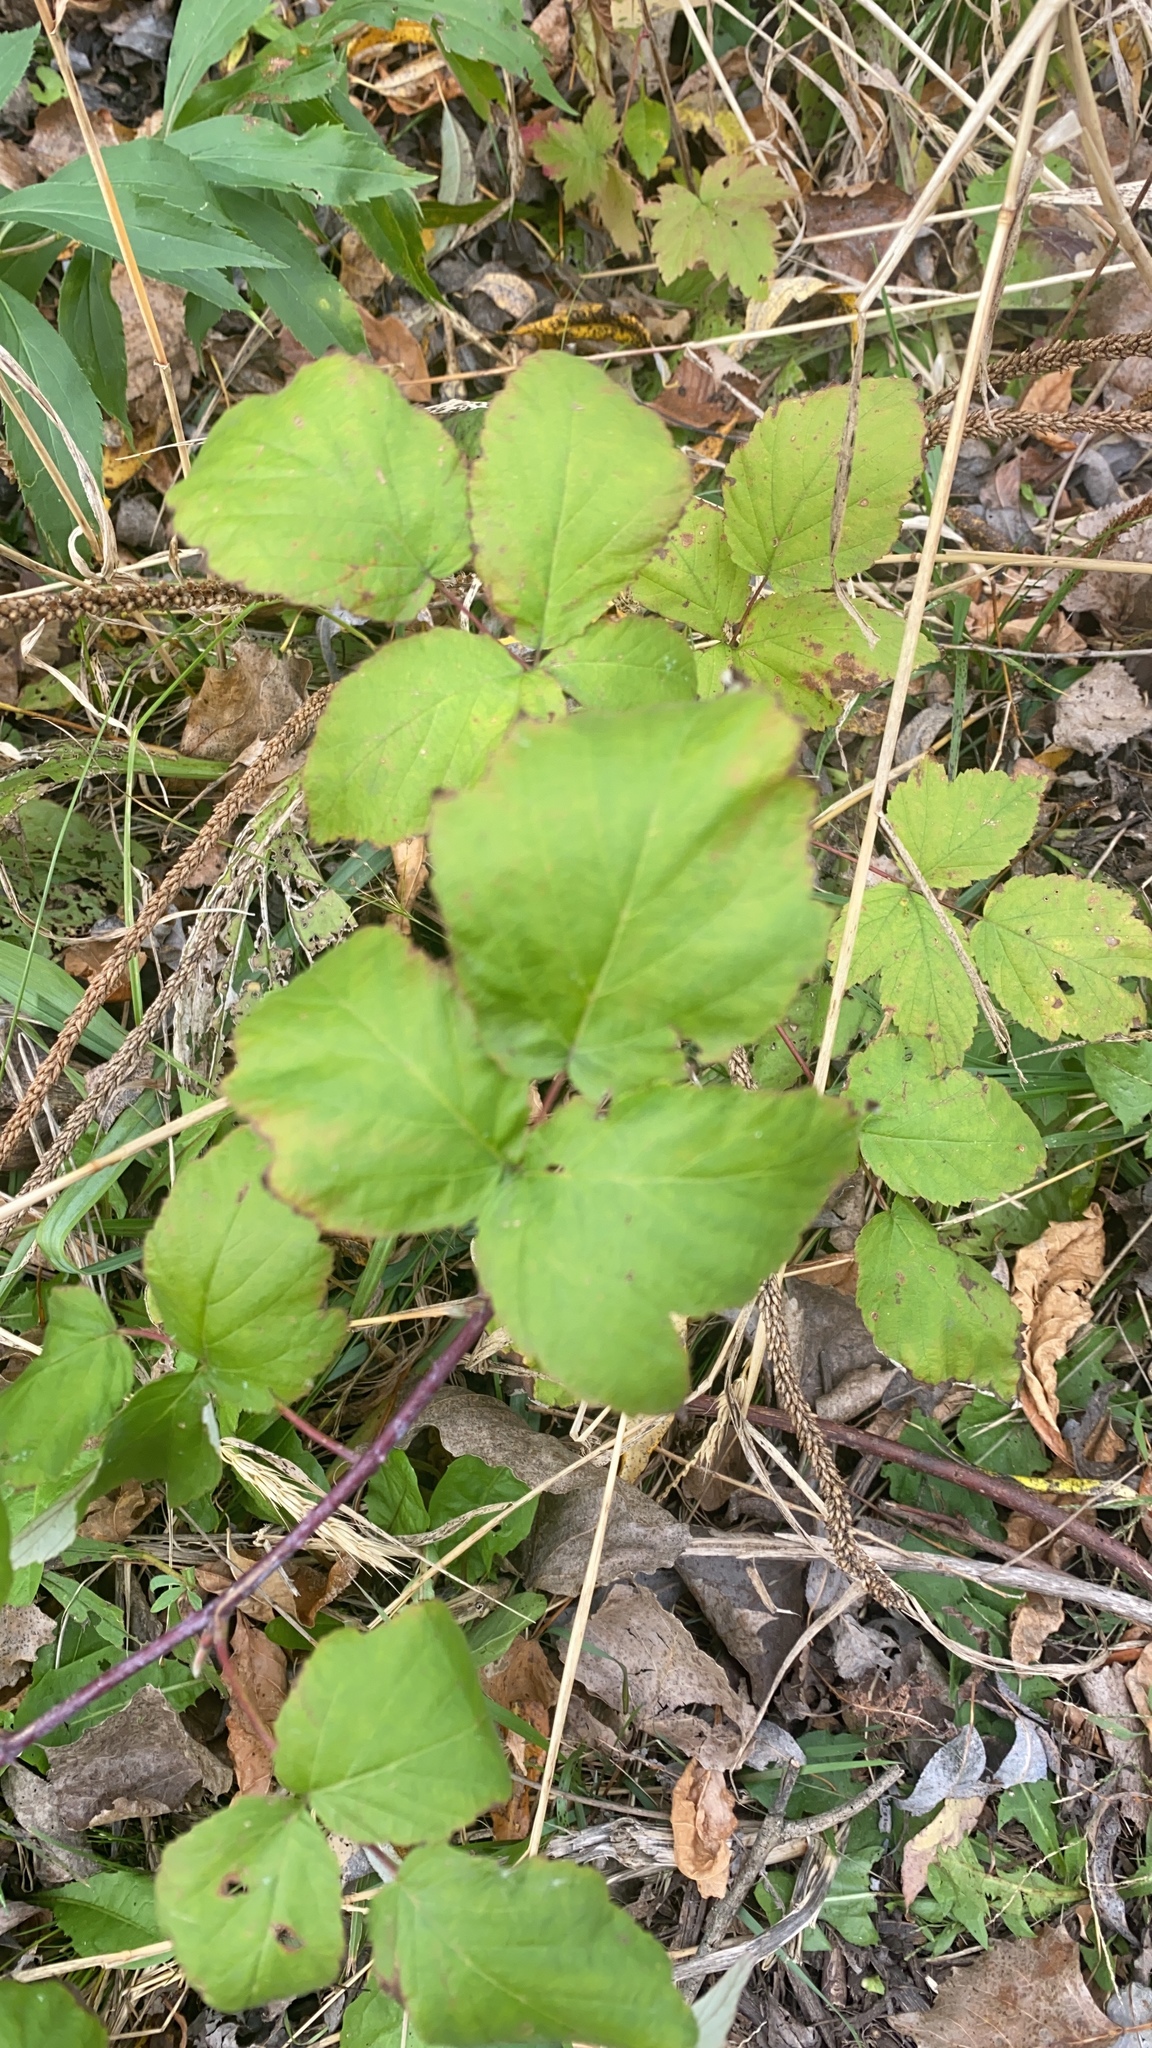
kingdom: Plantae
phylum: Tracheophyta
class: Magnoliopsida
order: Rosales
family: Rosaceae
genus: Rubus
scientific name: Rubus occidentalis
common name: Black raspberry
